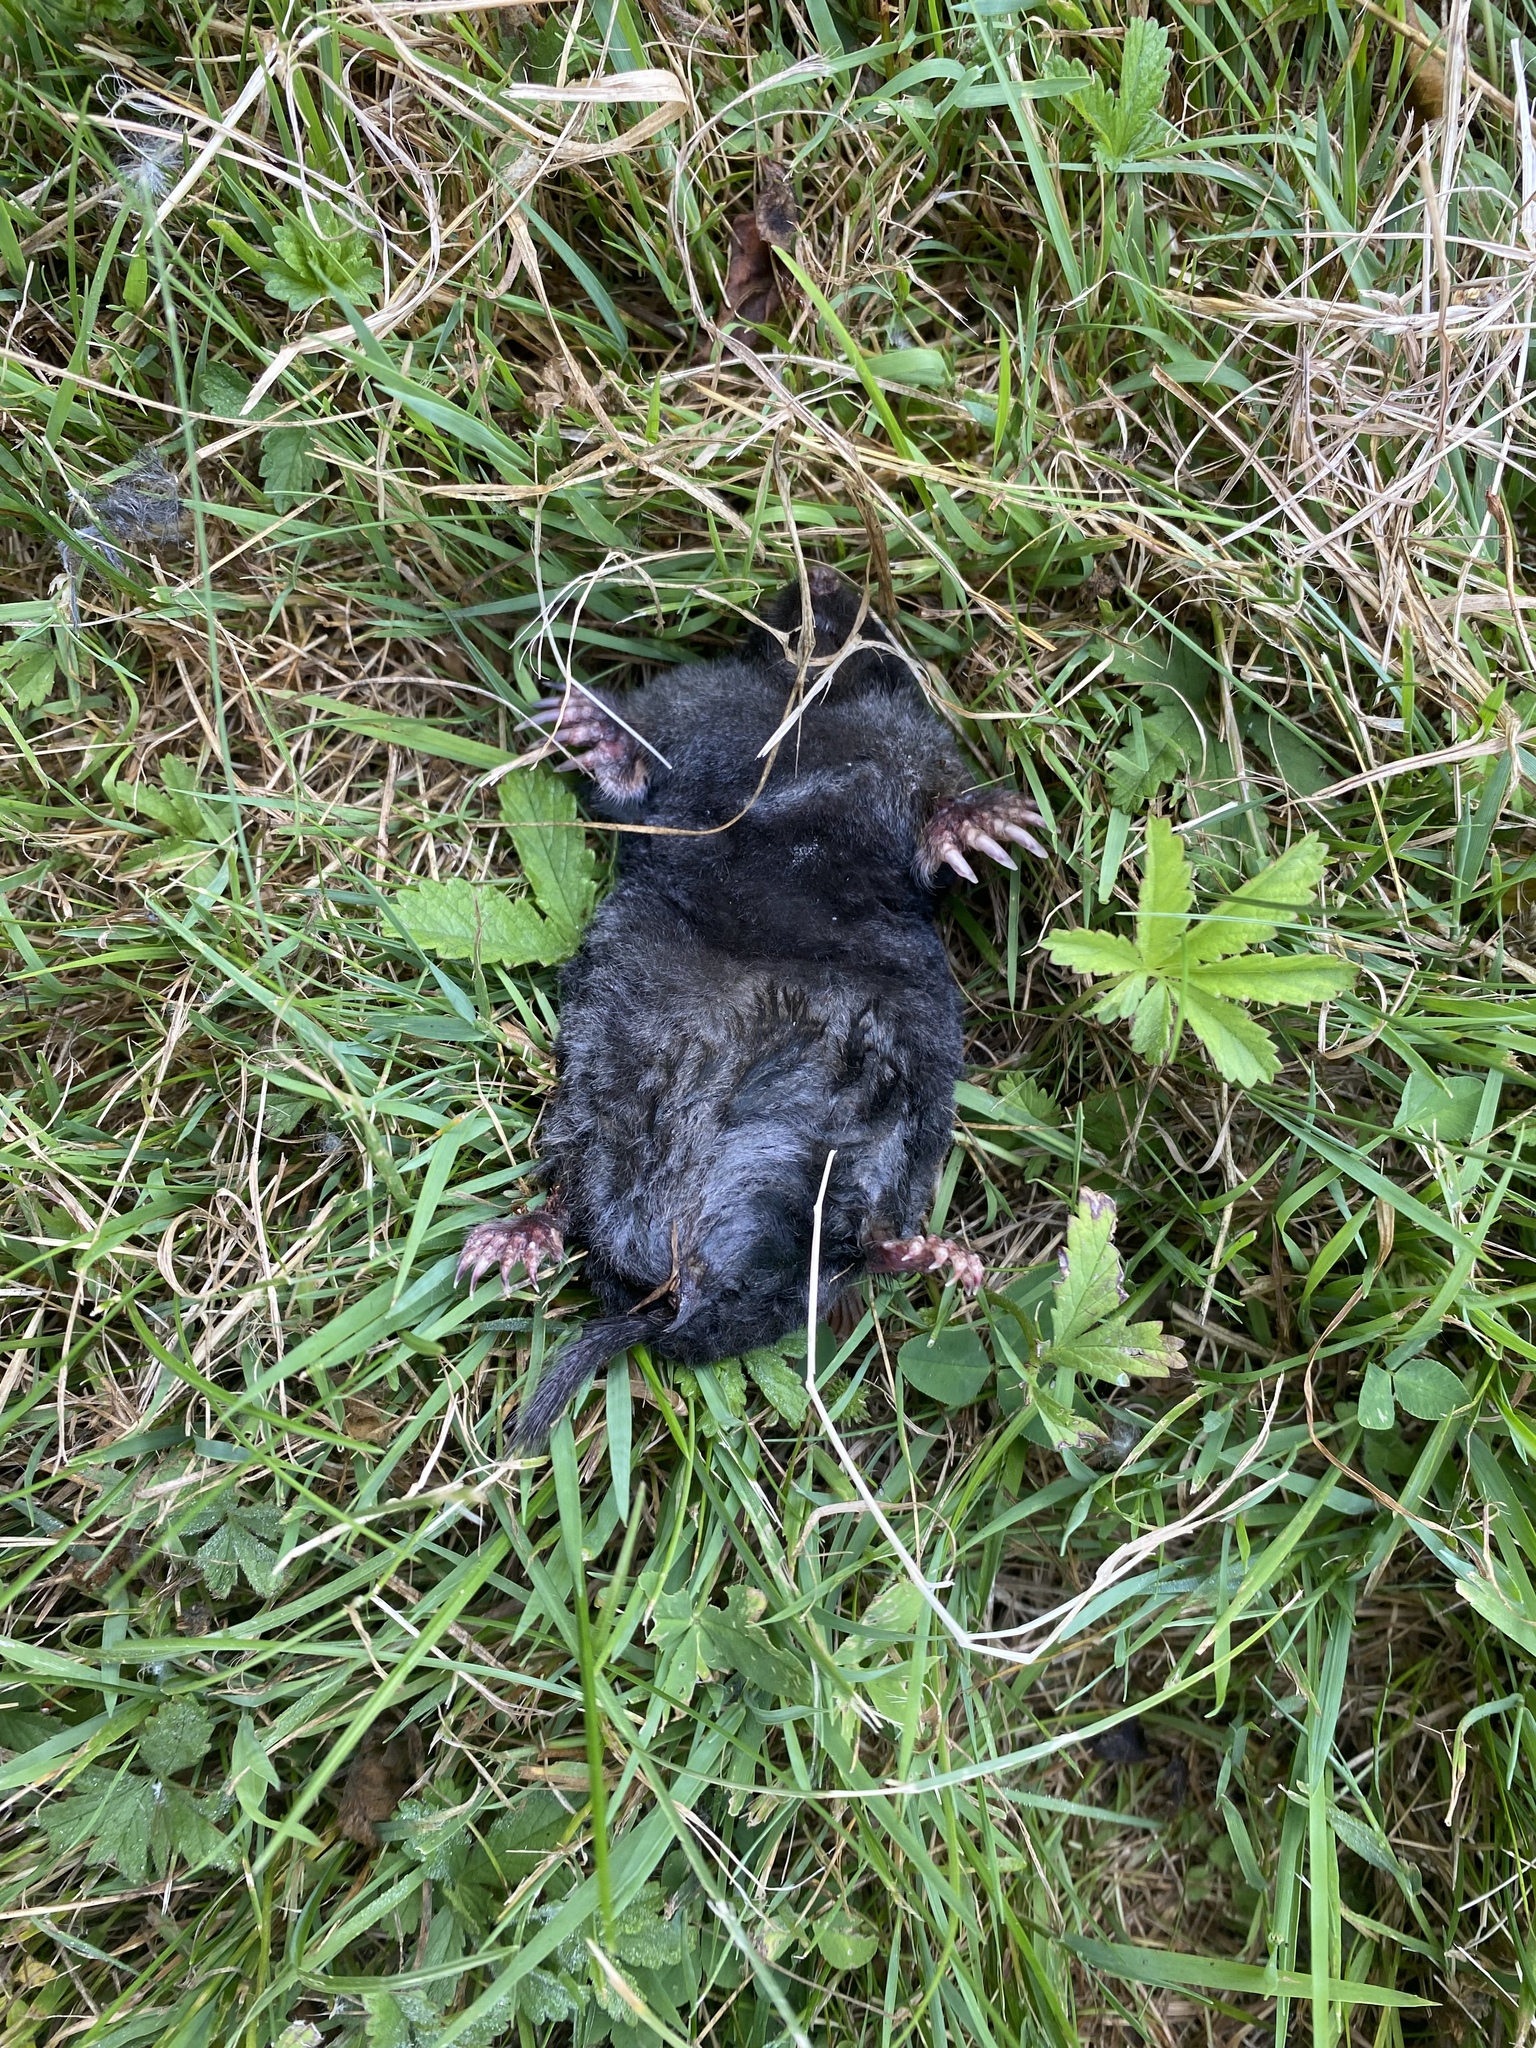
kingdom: Animalia
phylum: Chordata
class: Mammalia
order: Soricomorpha
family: Talpidae
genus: Talpa
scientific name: Talpa europaea
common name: European mole
